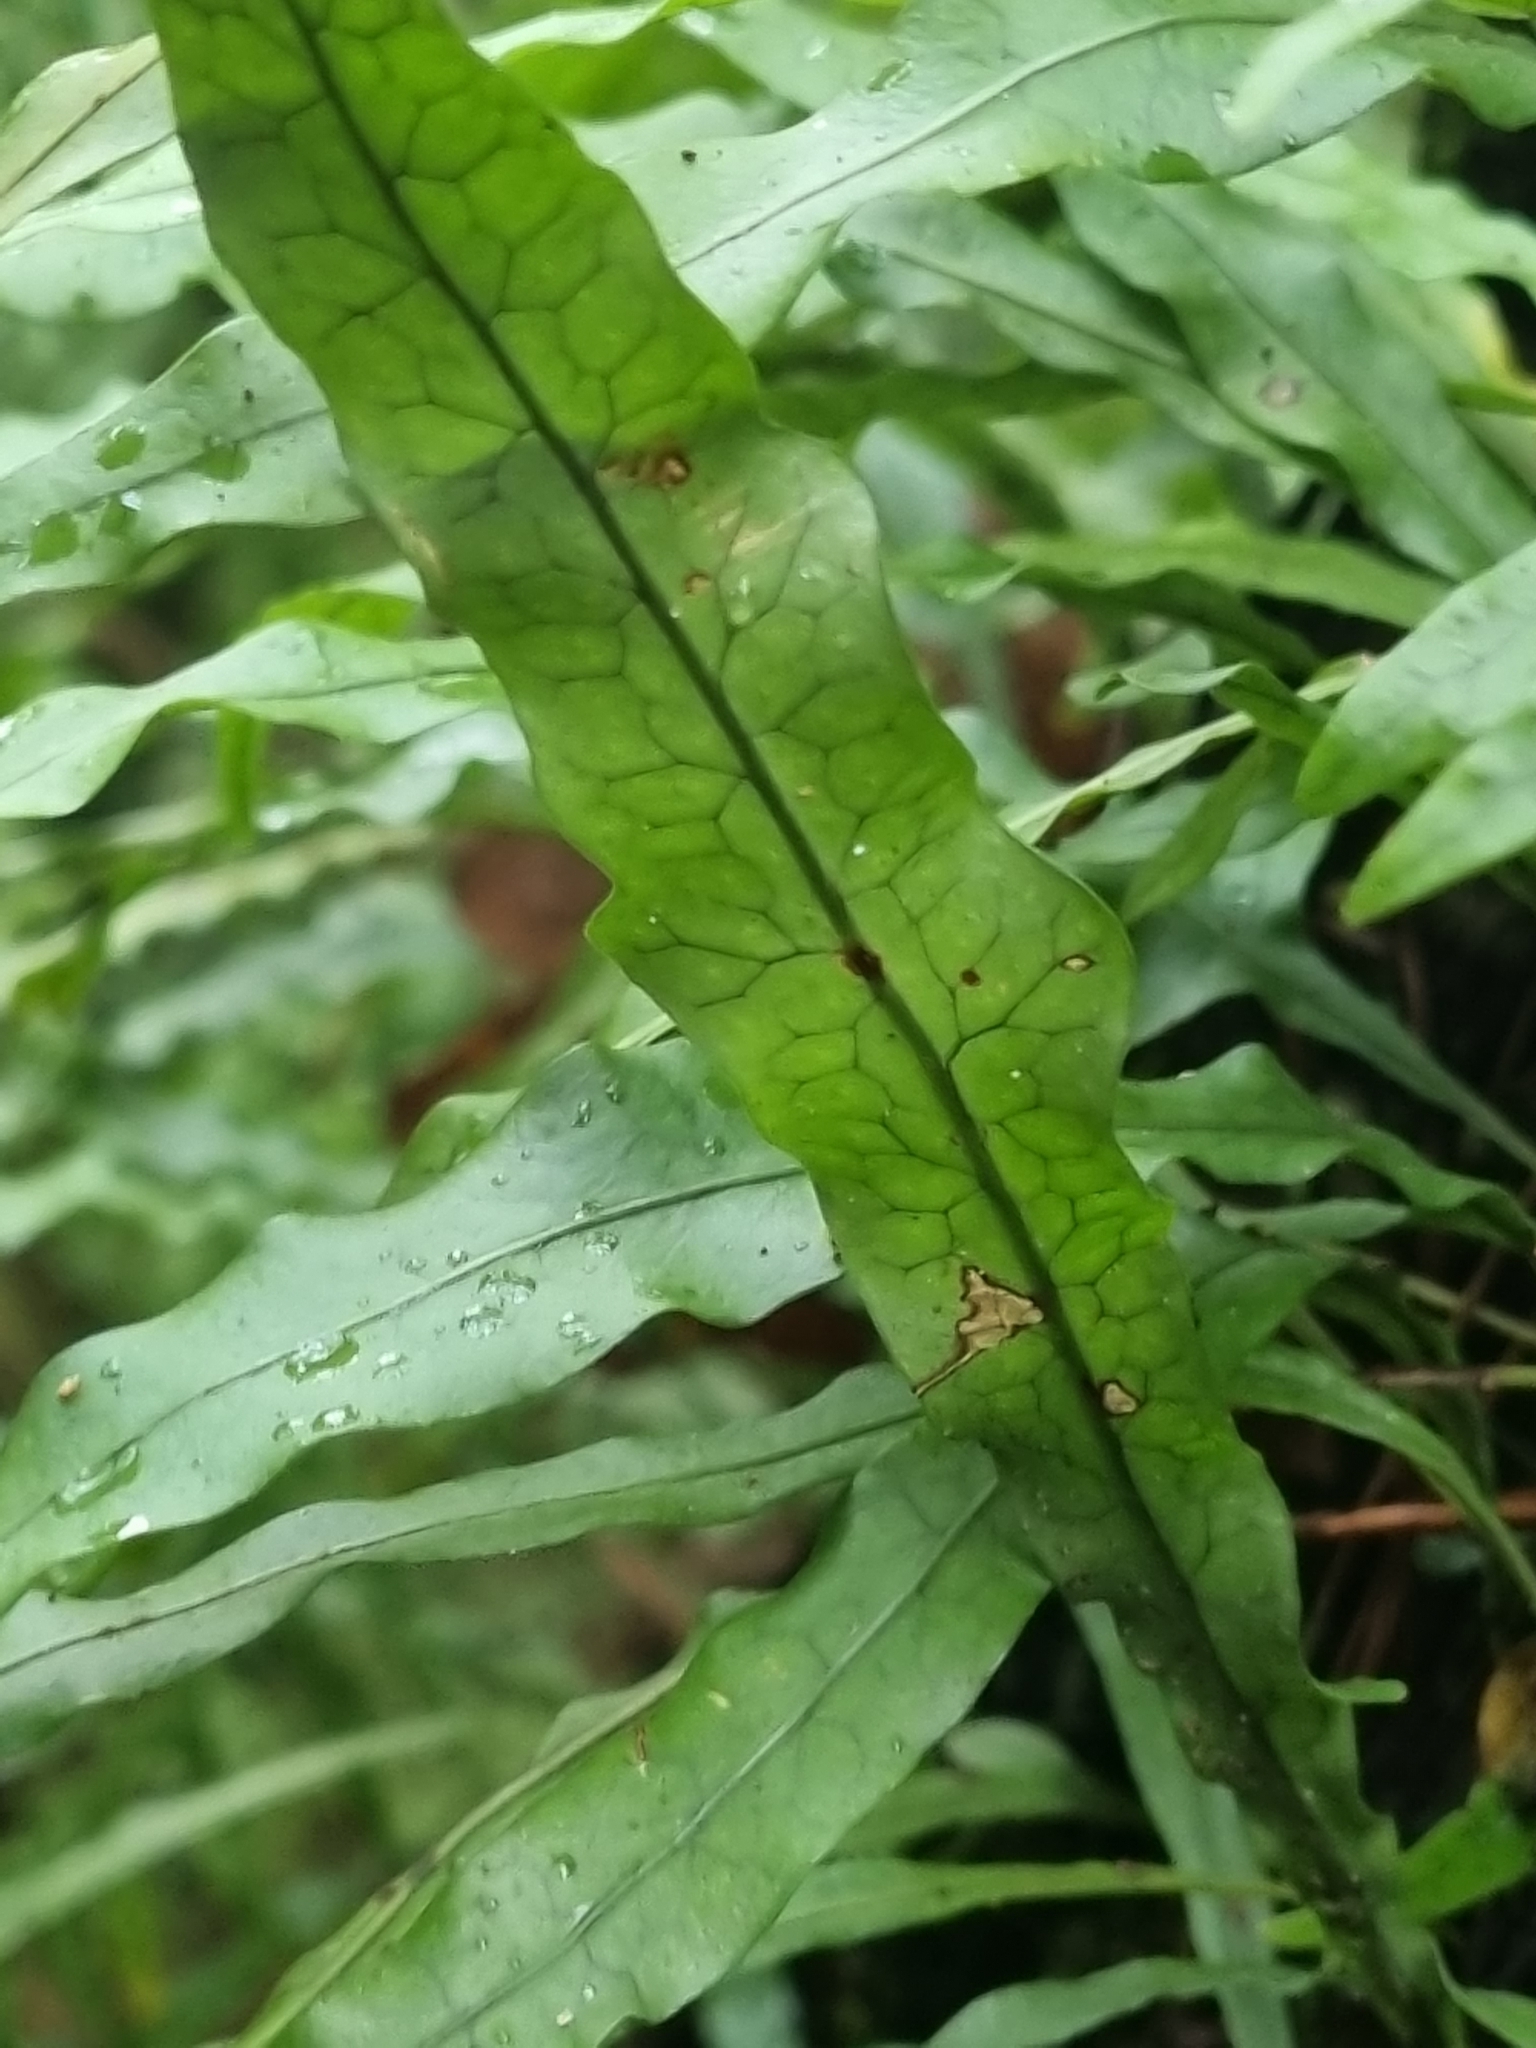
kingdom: Plantae
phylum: Tracheophyta
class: Polypodiopsida
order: Polypodiales
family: Polypodiaceae
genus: Lecanopteris
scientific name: Lecanopteris scandens
